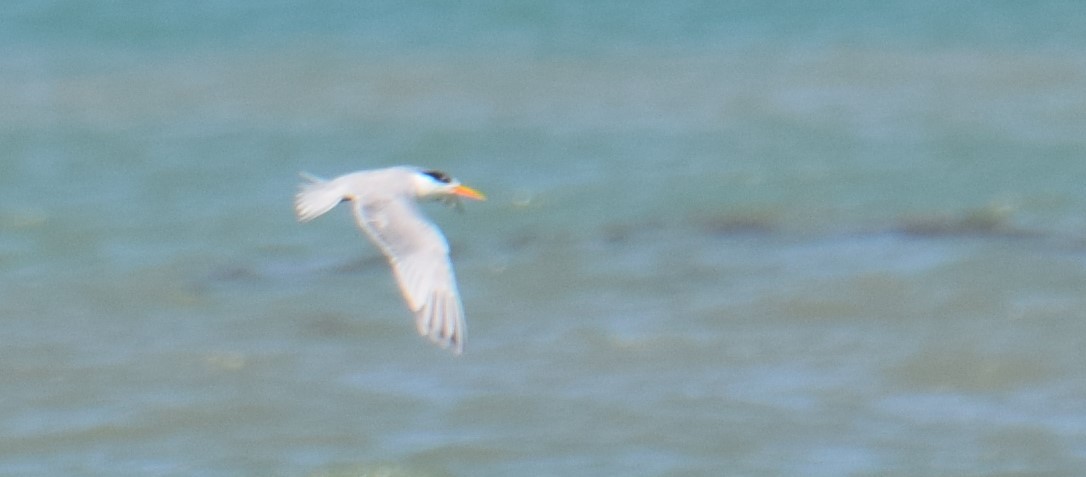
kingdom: Animalia
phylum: Chordata
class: Aves
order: Charadriiformes
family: Laridae
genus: Thalasseus
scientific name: Thalasseus bengalensis
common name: Lesser crested tern
